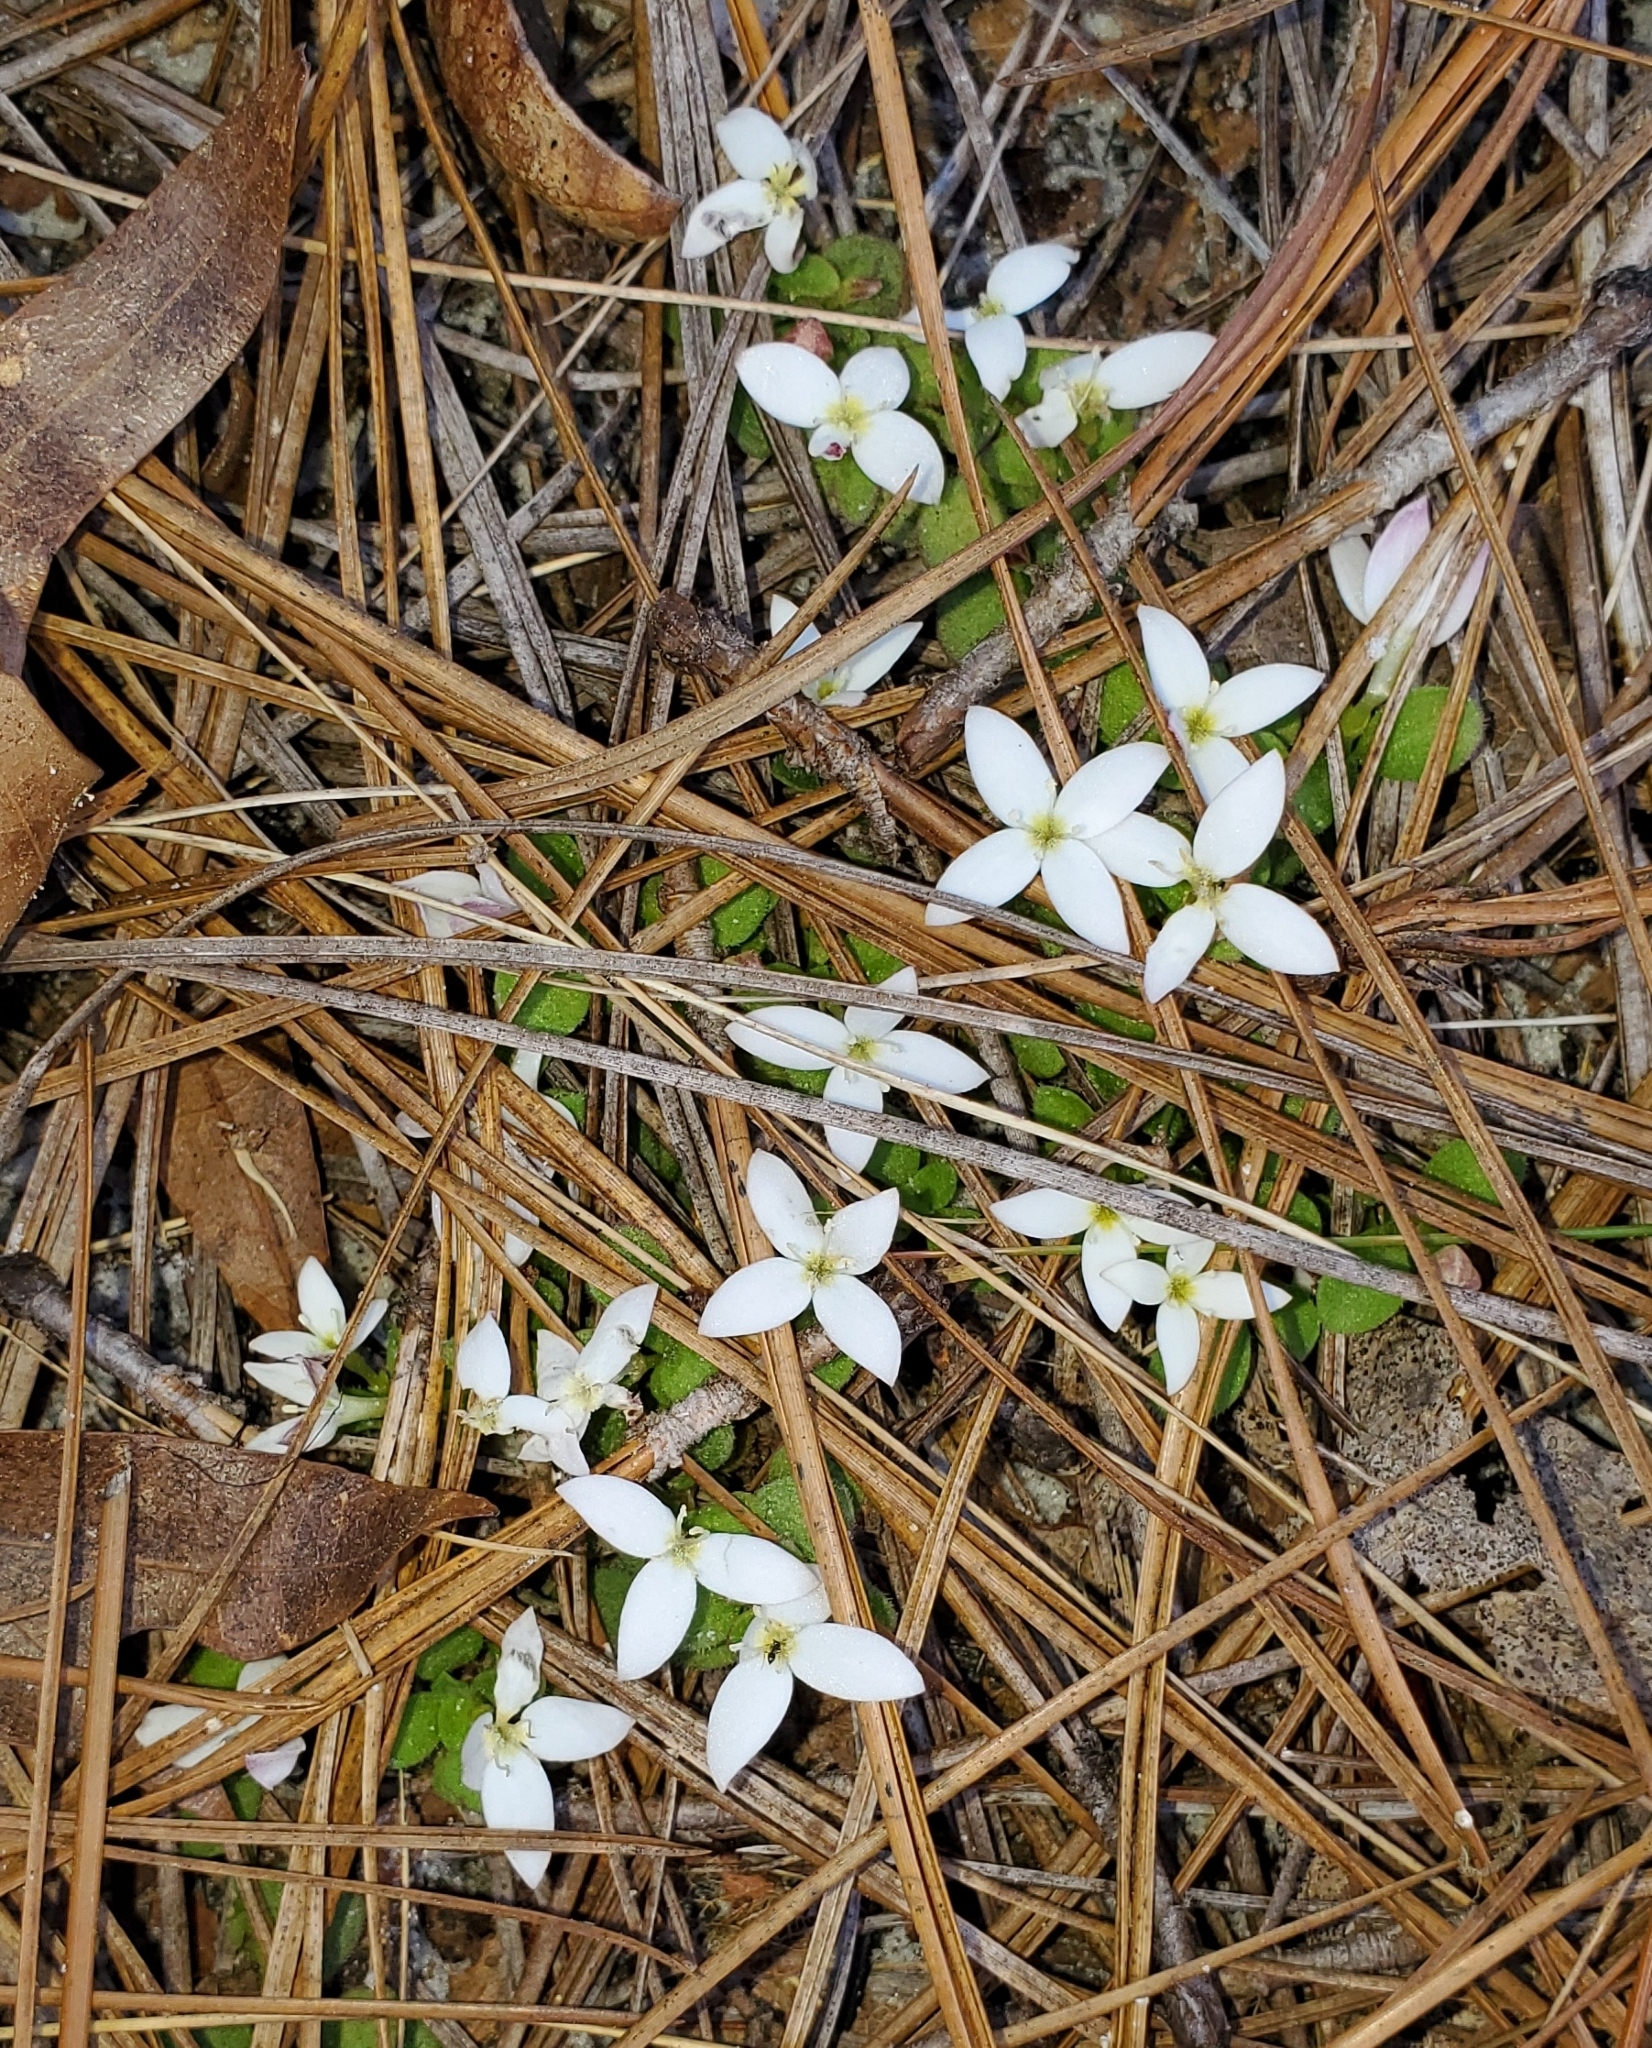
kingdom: Plantae
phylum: Tracheophyta
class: Magnoliopsida
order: Gentianales
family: Rubiaceae
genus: Houstonia
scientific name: Houstonia procumbens
